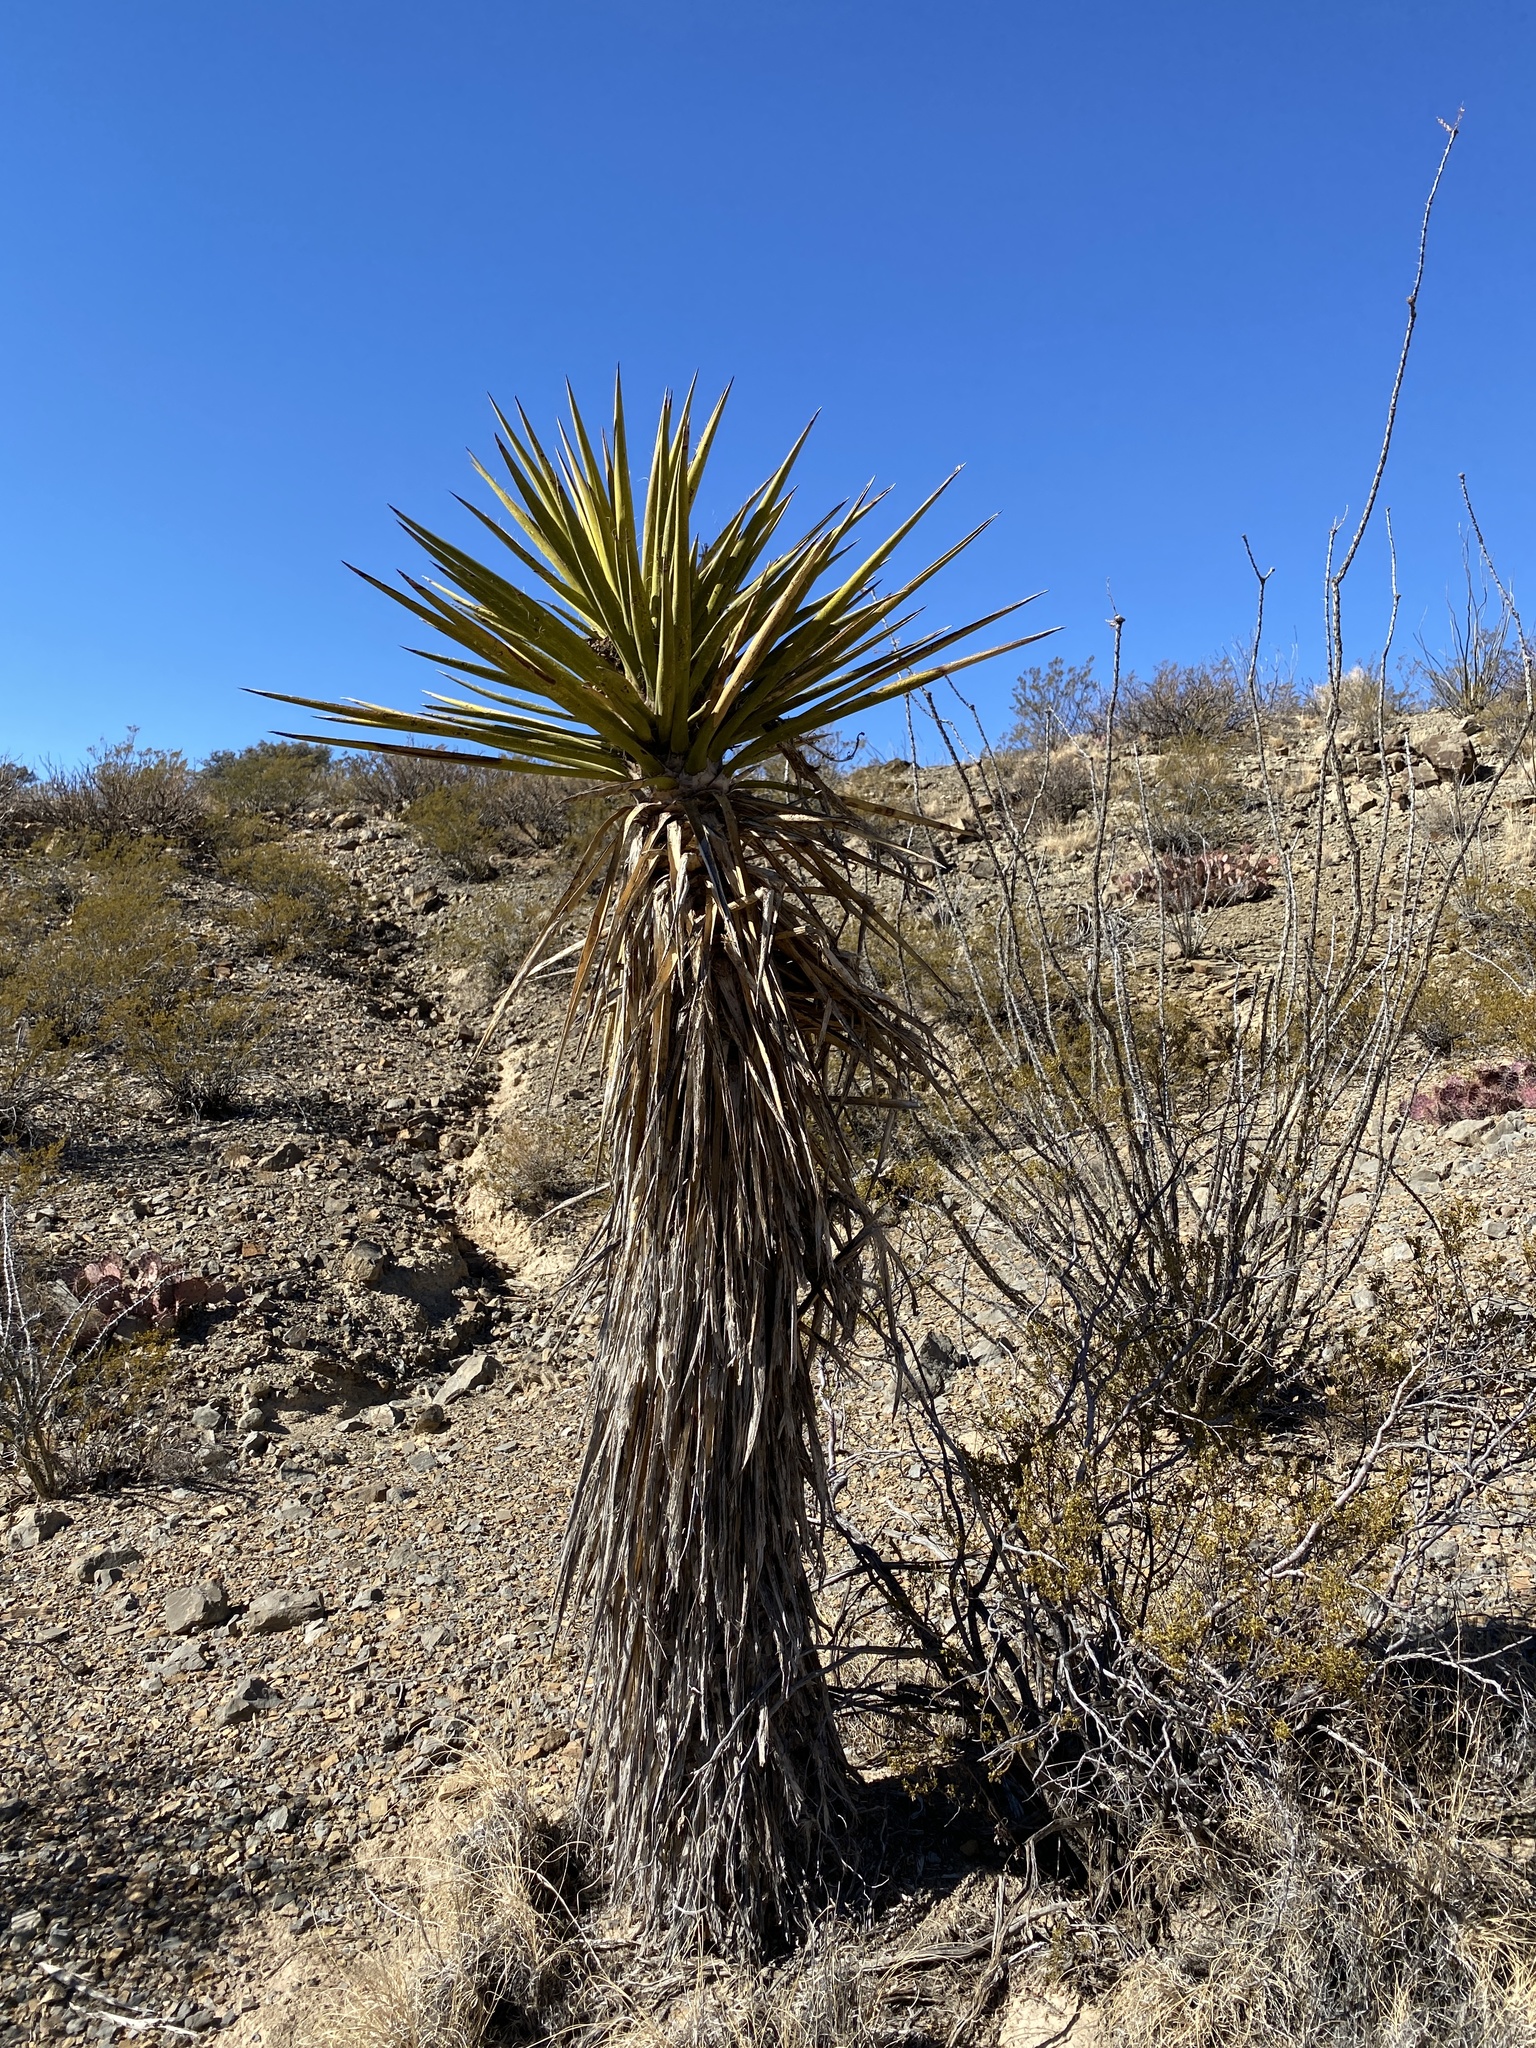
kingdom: Plantae
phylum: Tracheophyta
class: Liliopsida
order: Asparagales
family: Asparagaceae
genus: Yucca
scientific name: Yucca treculiana
